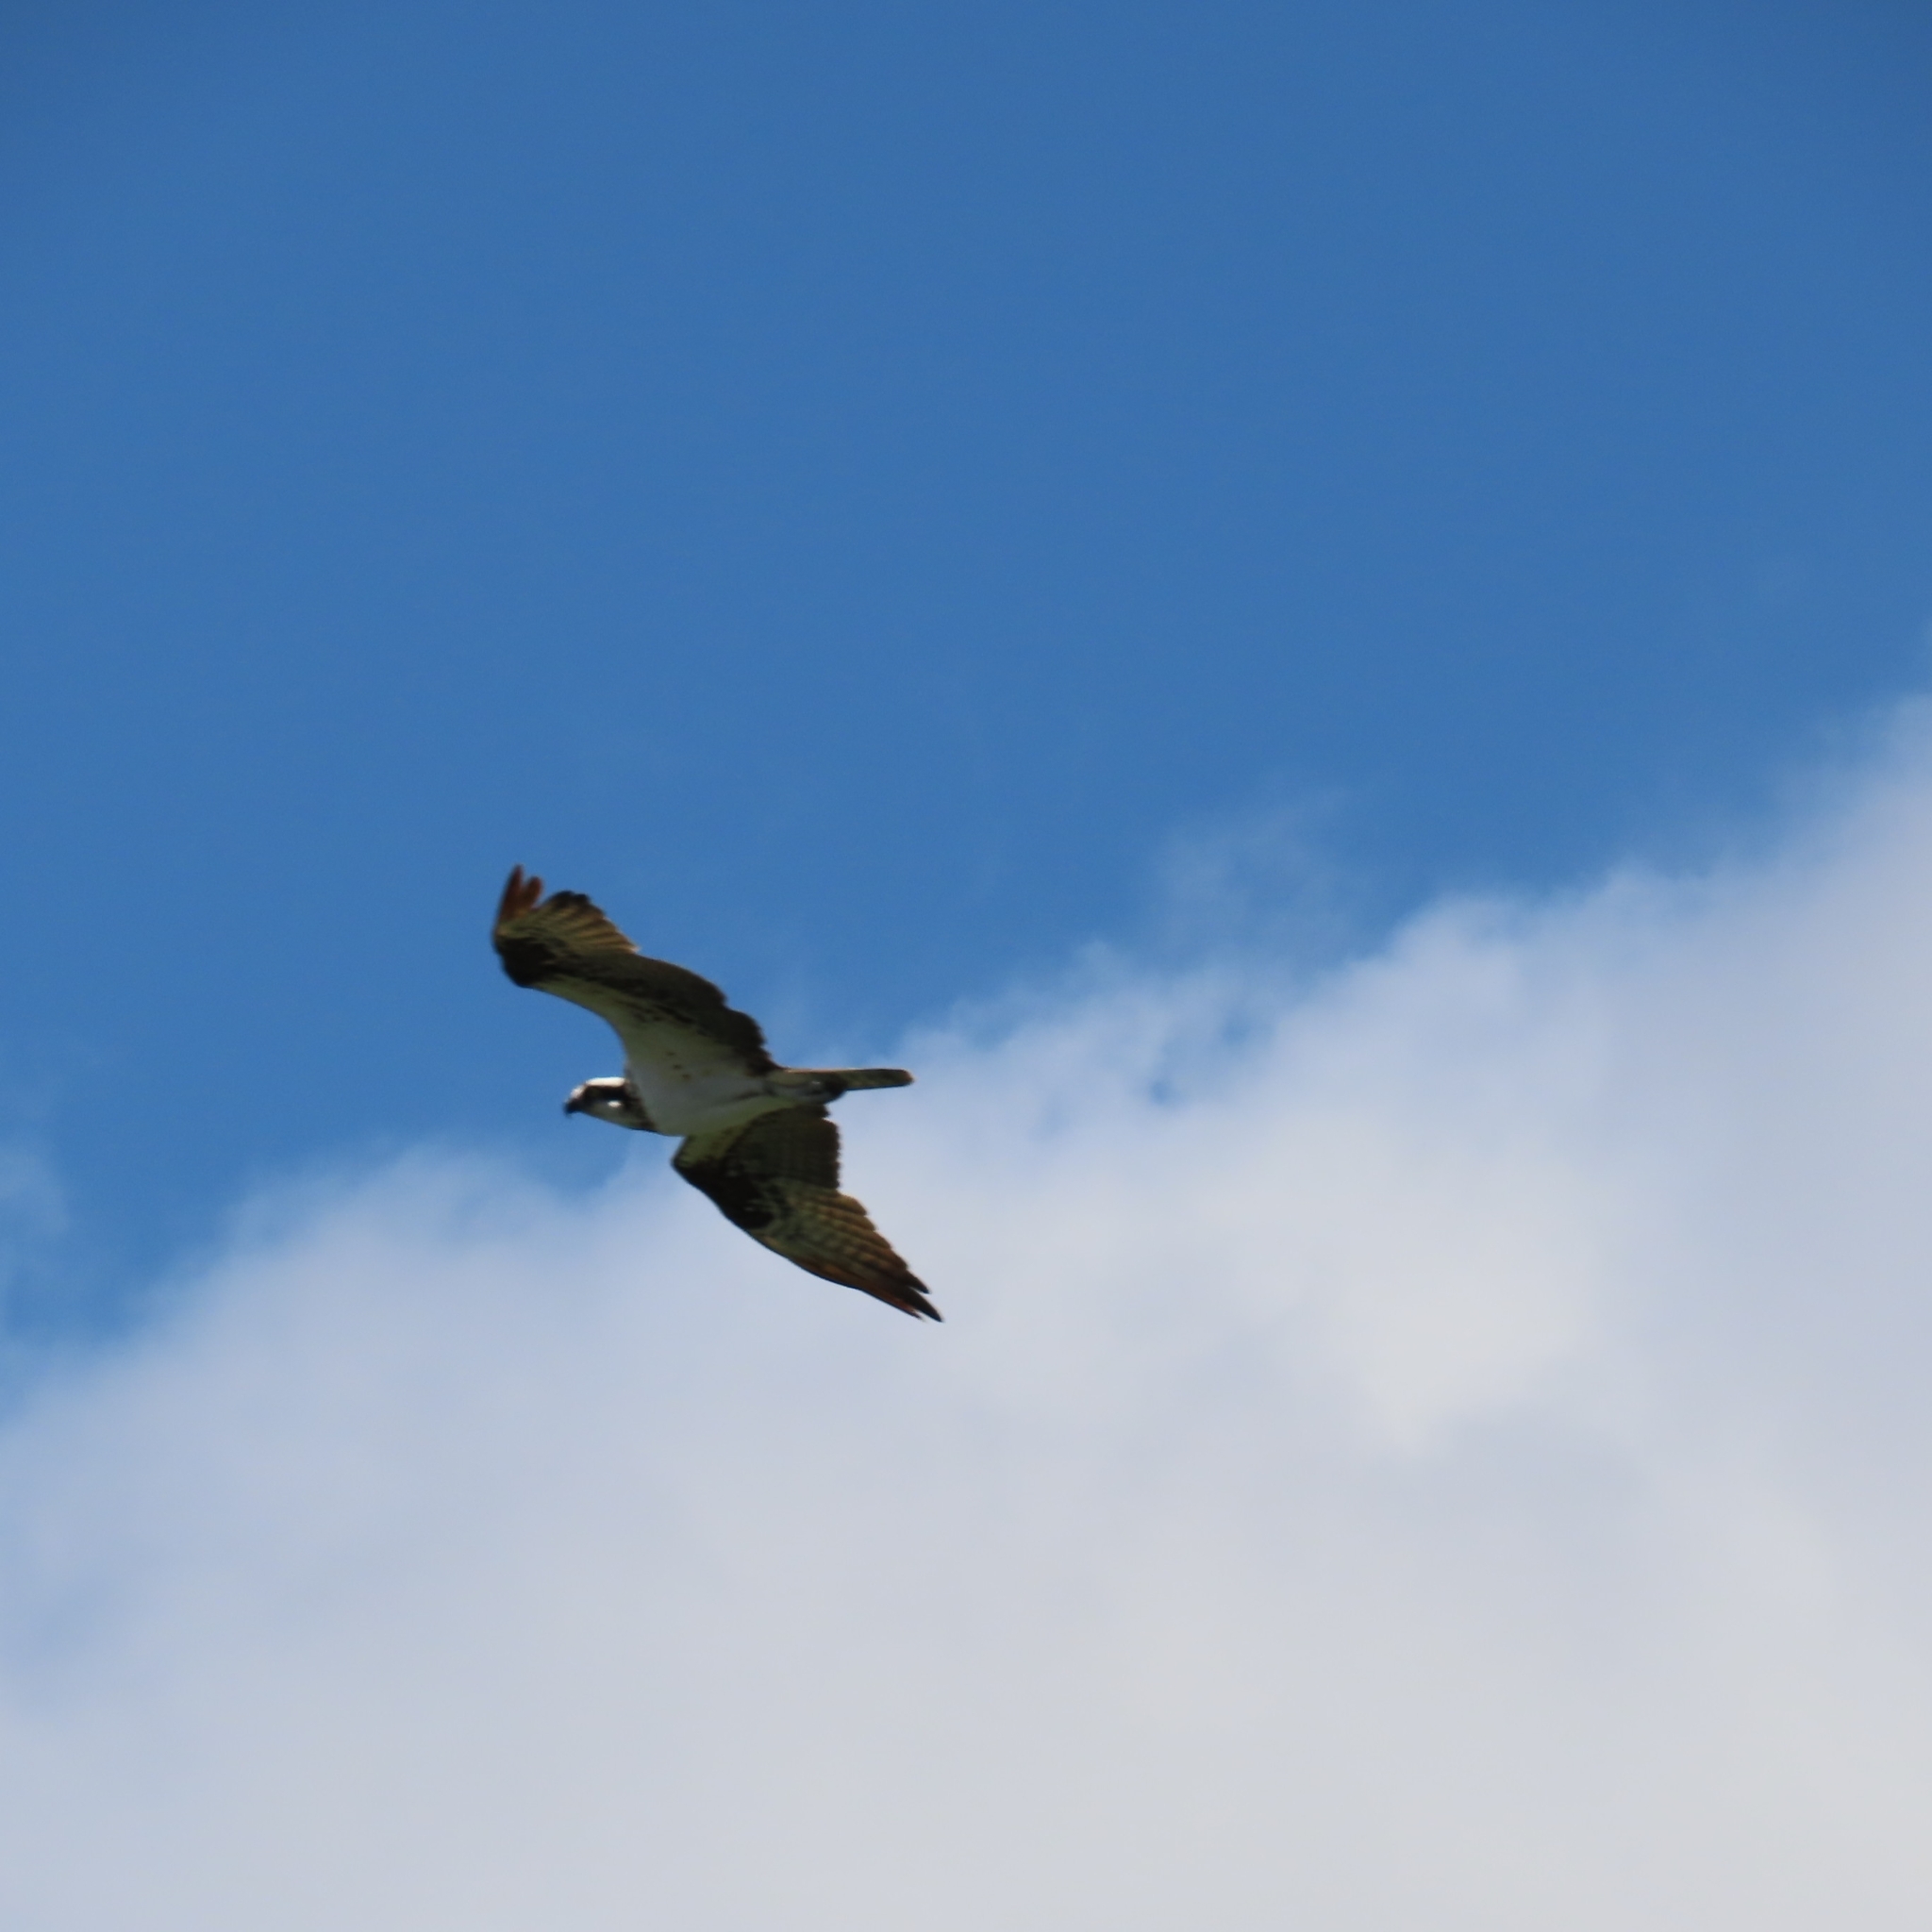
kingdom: Animalia
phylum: Chordata
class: Aves
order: Accipitriformes
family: Pandionidae
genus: Pandion
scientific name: Pandion haliaetus
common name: Osprey
